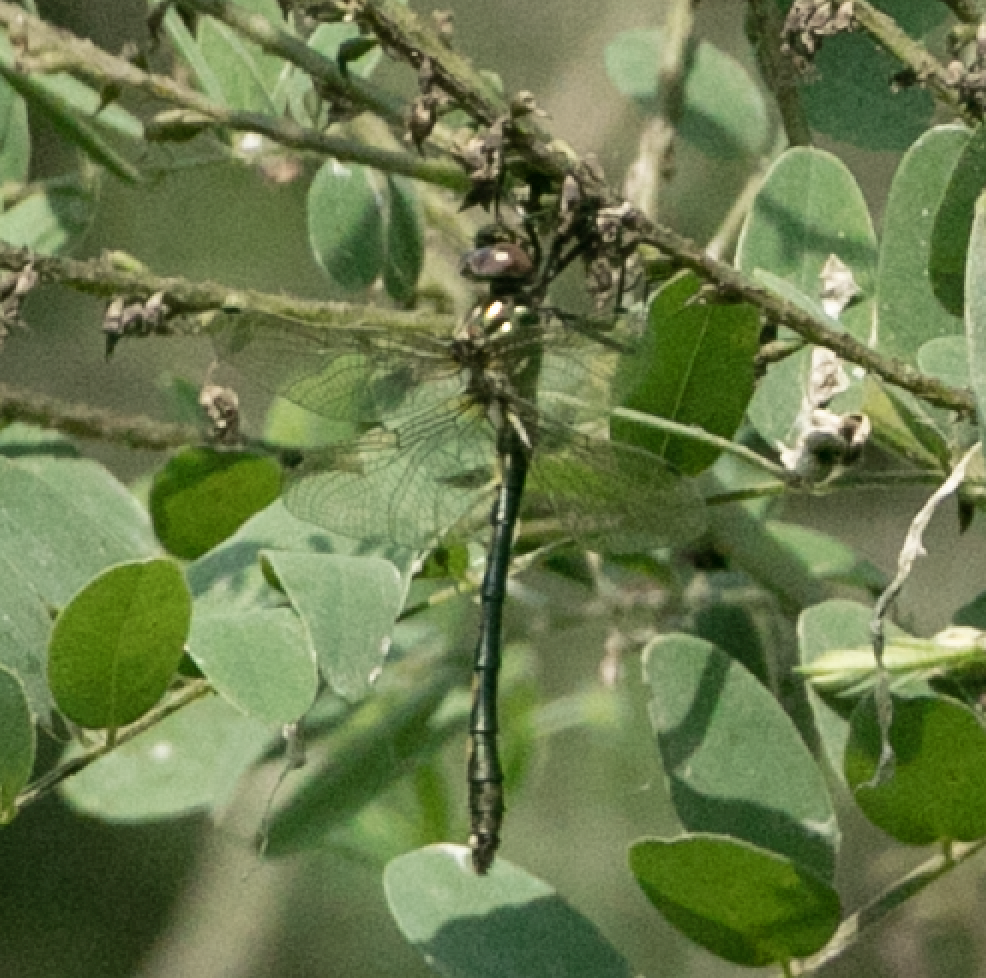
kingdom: Animalia
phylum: Arthropoda
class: Insecta
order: Odonata
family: Corduliidae
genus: Oxygastra
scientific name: Oxygastra curtisii
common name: Orange-spotted emerald
